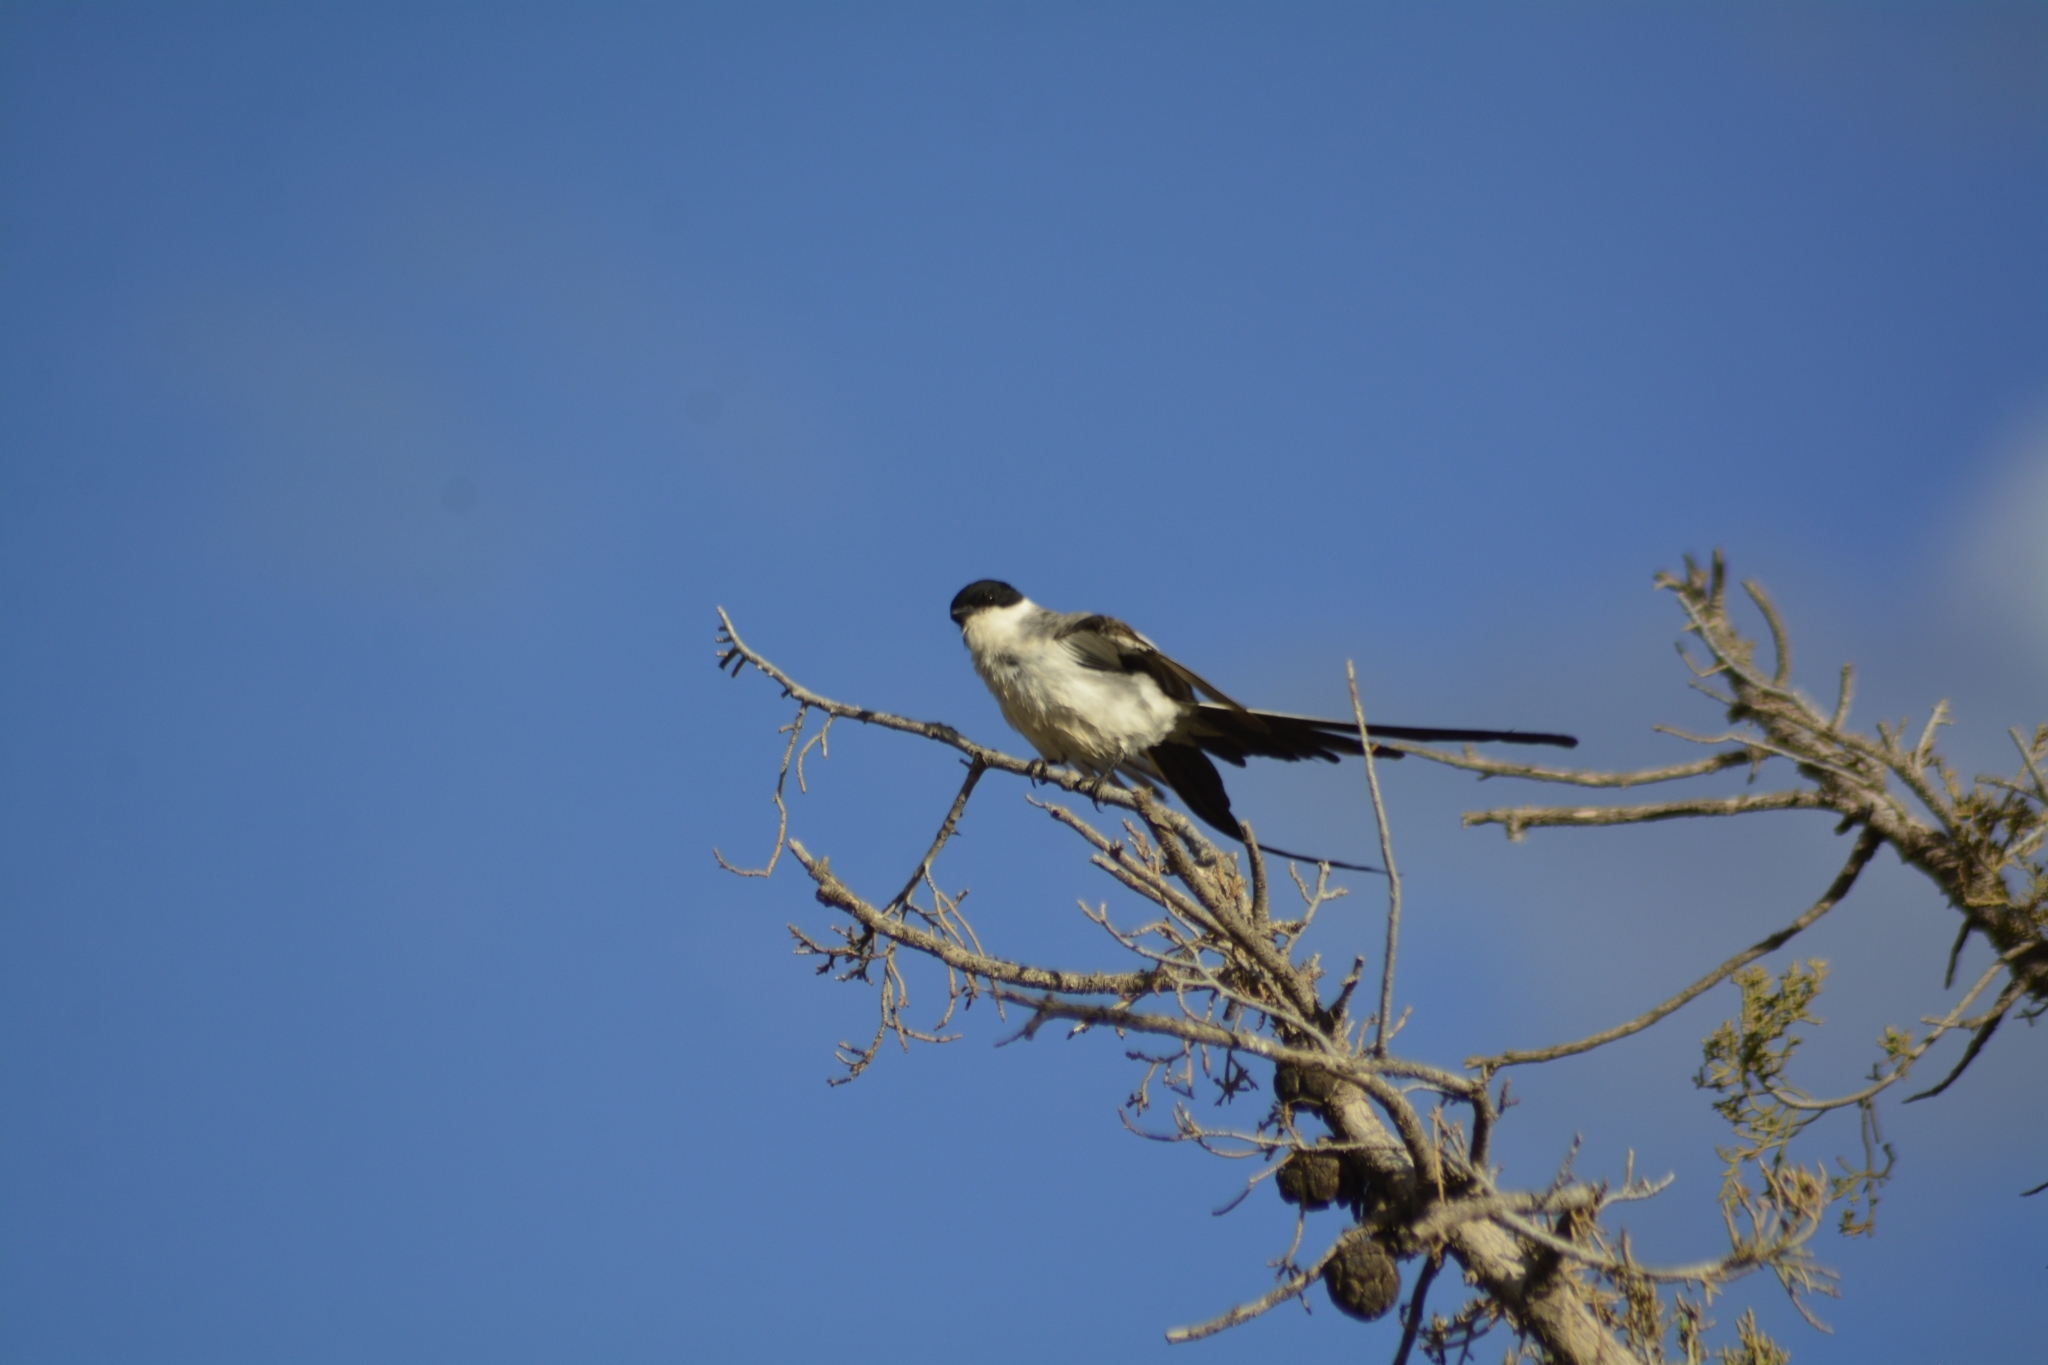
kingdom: Animalia
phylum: Chordata
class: Aves
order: Passeriformes
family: Tyrannidae
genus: Tyrannus
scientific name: Tyrannus savana
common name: Fork-tailed flycatcher
